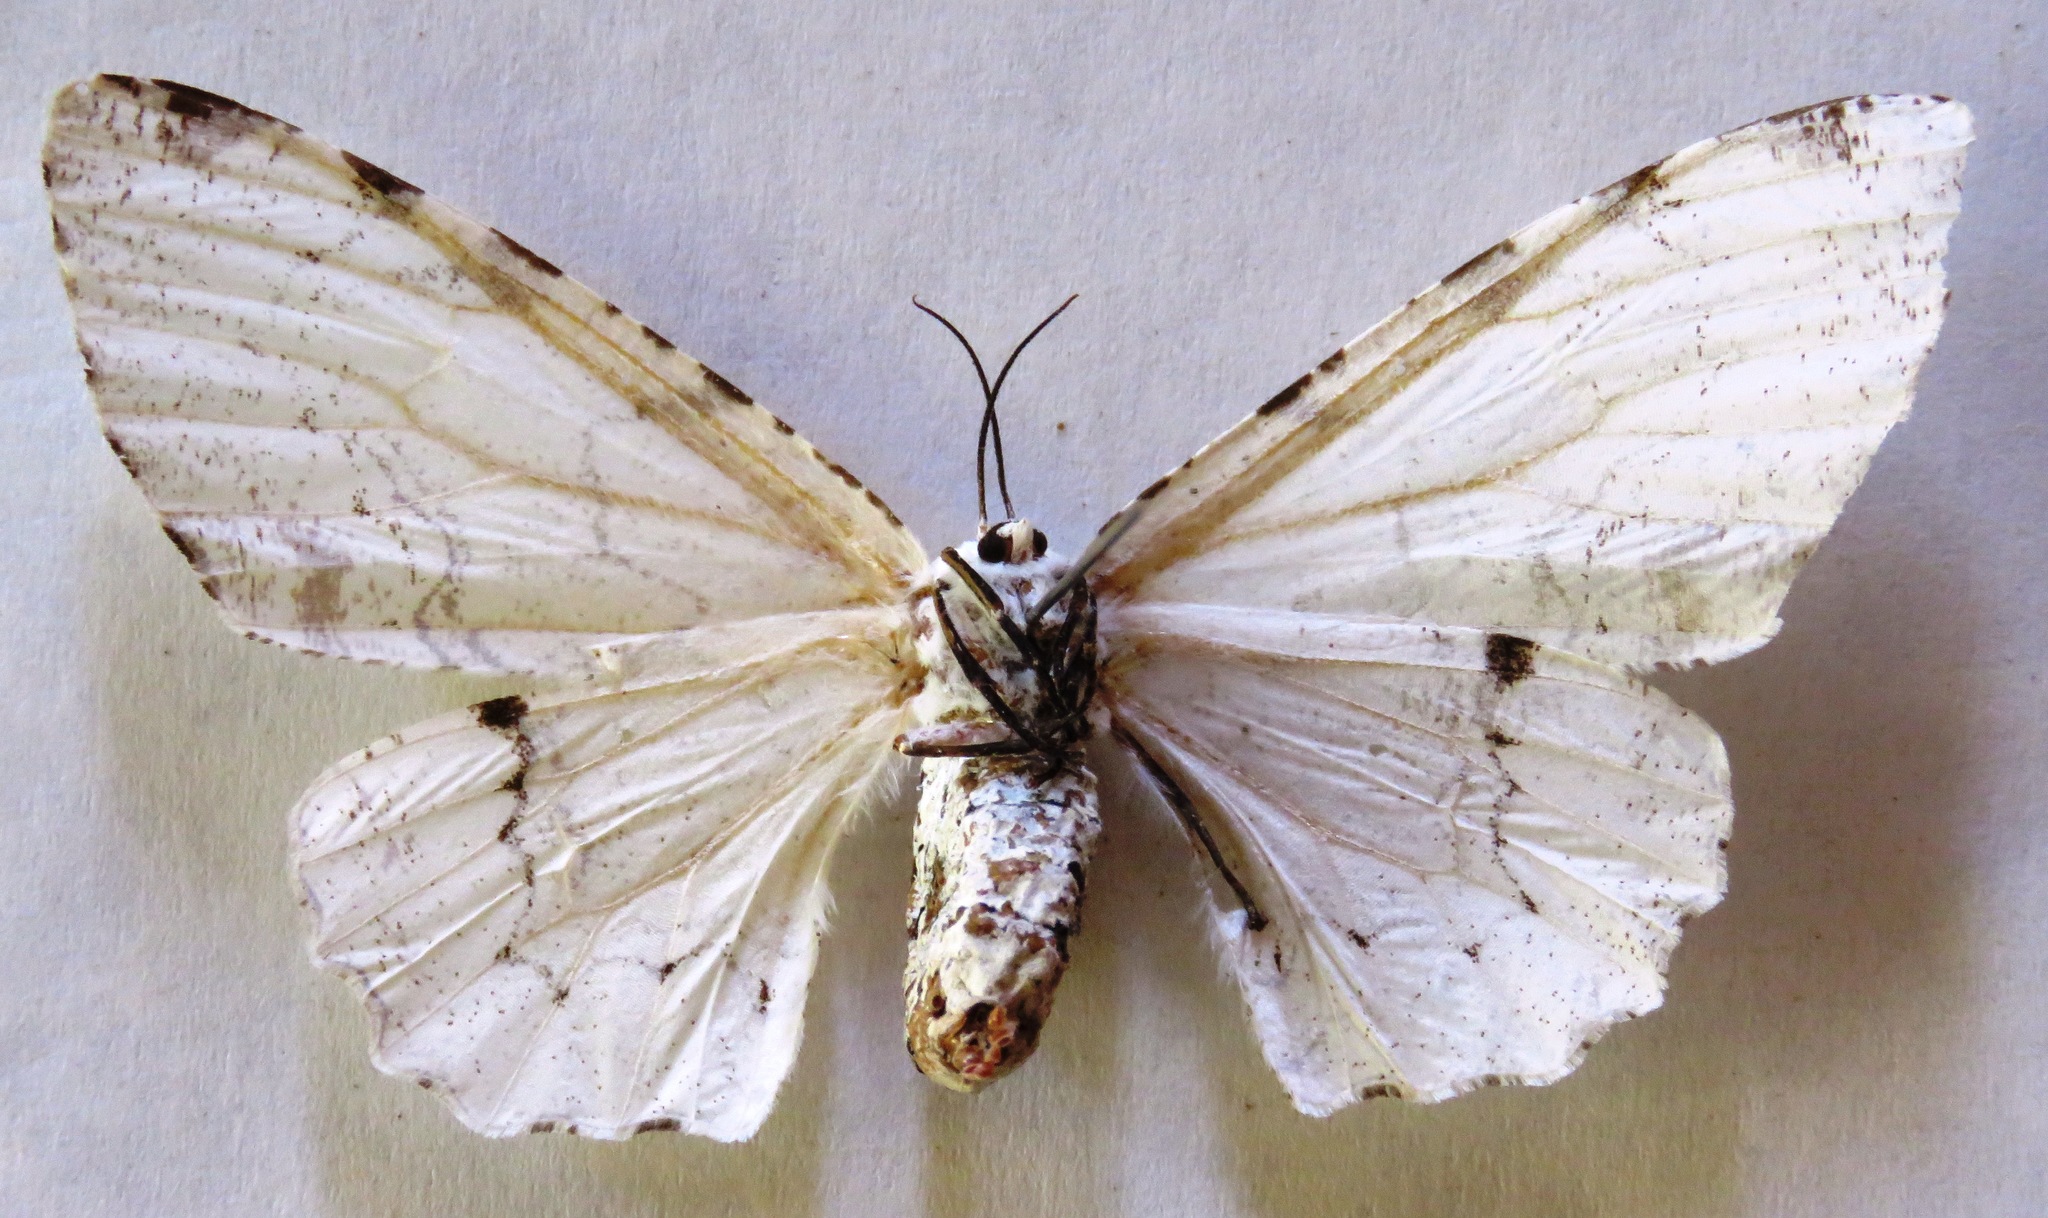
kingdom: Animalia
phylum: Arthropoda
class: Insecta
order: Lepidoptera
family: Geometridae
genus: Thyrinteina
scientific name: Thyrinteina arnobia
